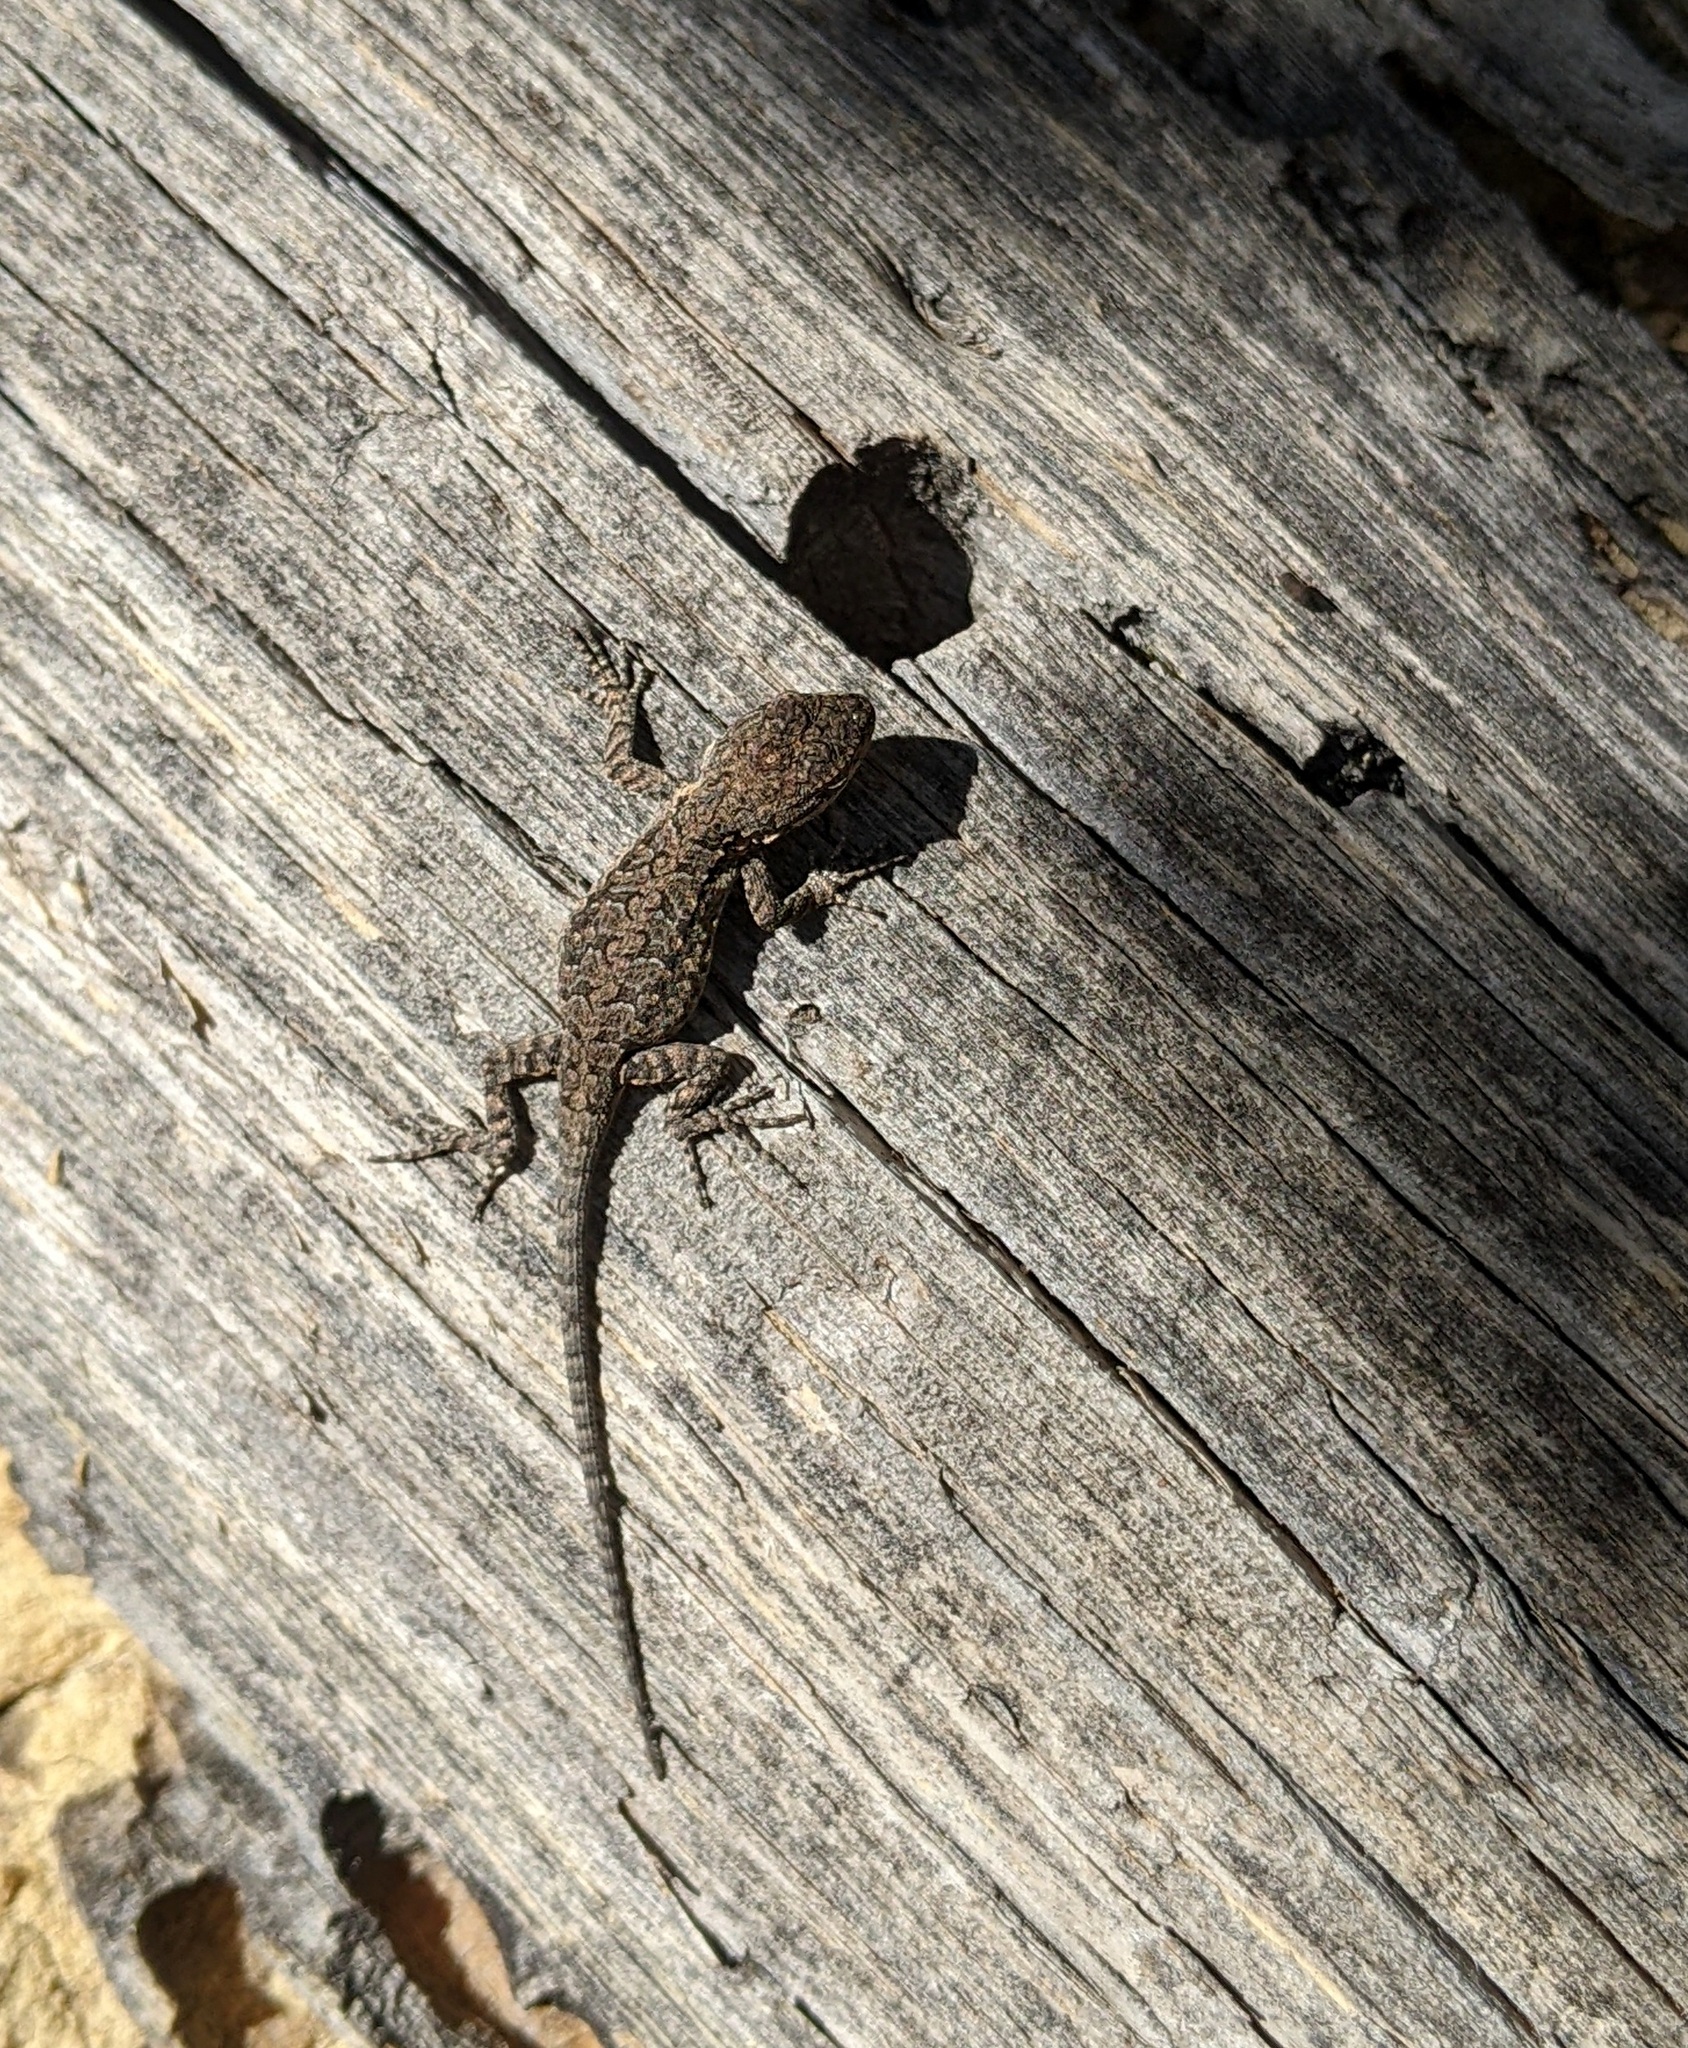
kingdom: Animalia
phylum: Chordata
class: Squamata
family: Phrynosomatidae
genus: Urosaurus
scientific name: Urosaurus ornatus
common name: Ornate tree lizard
